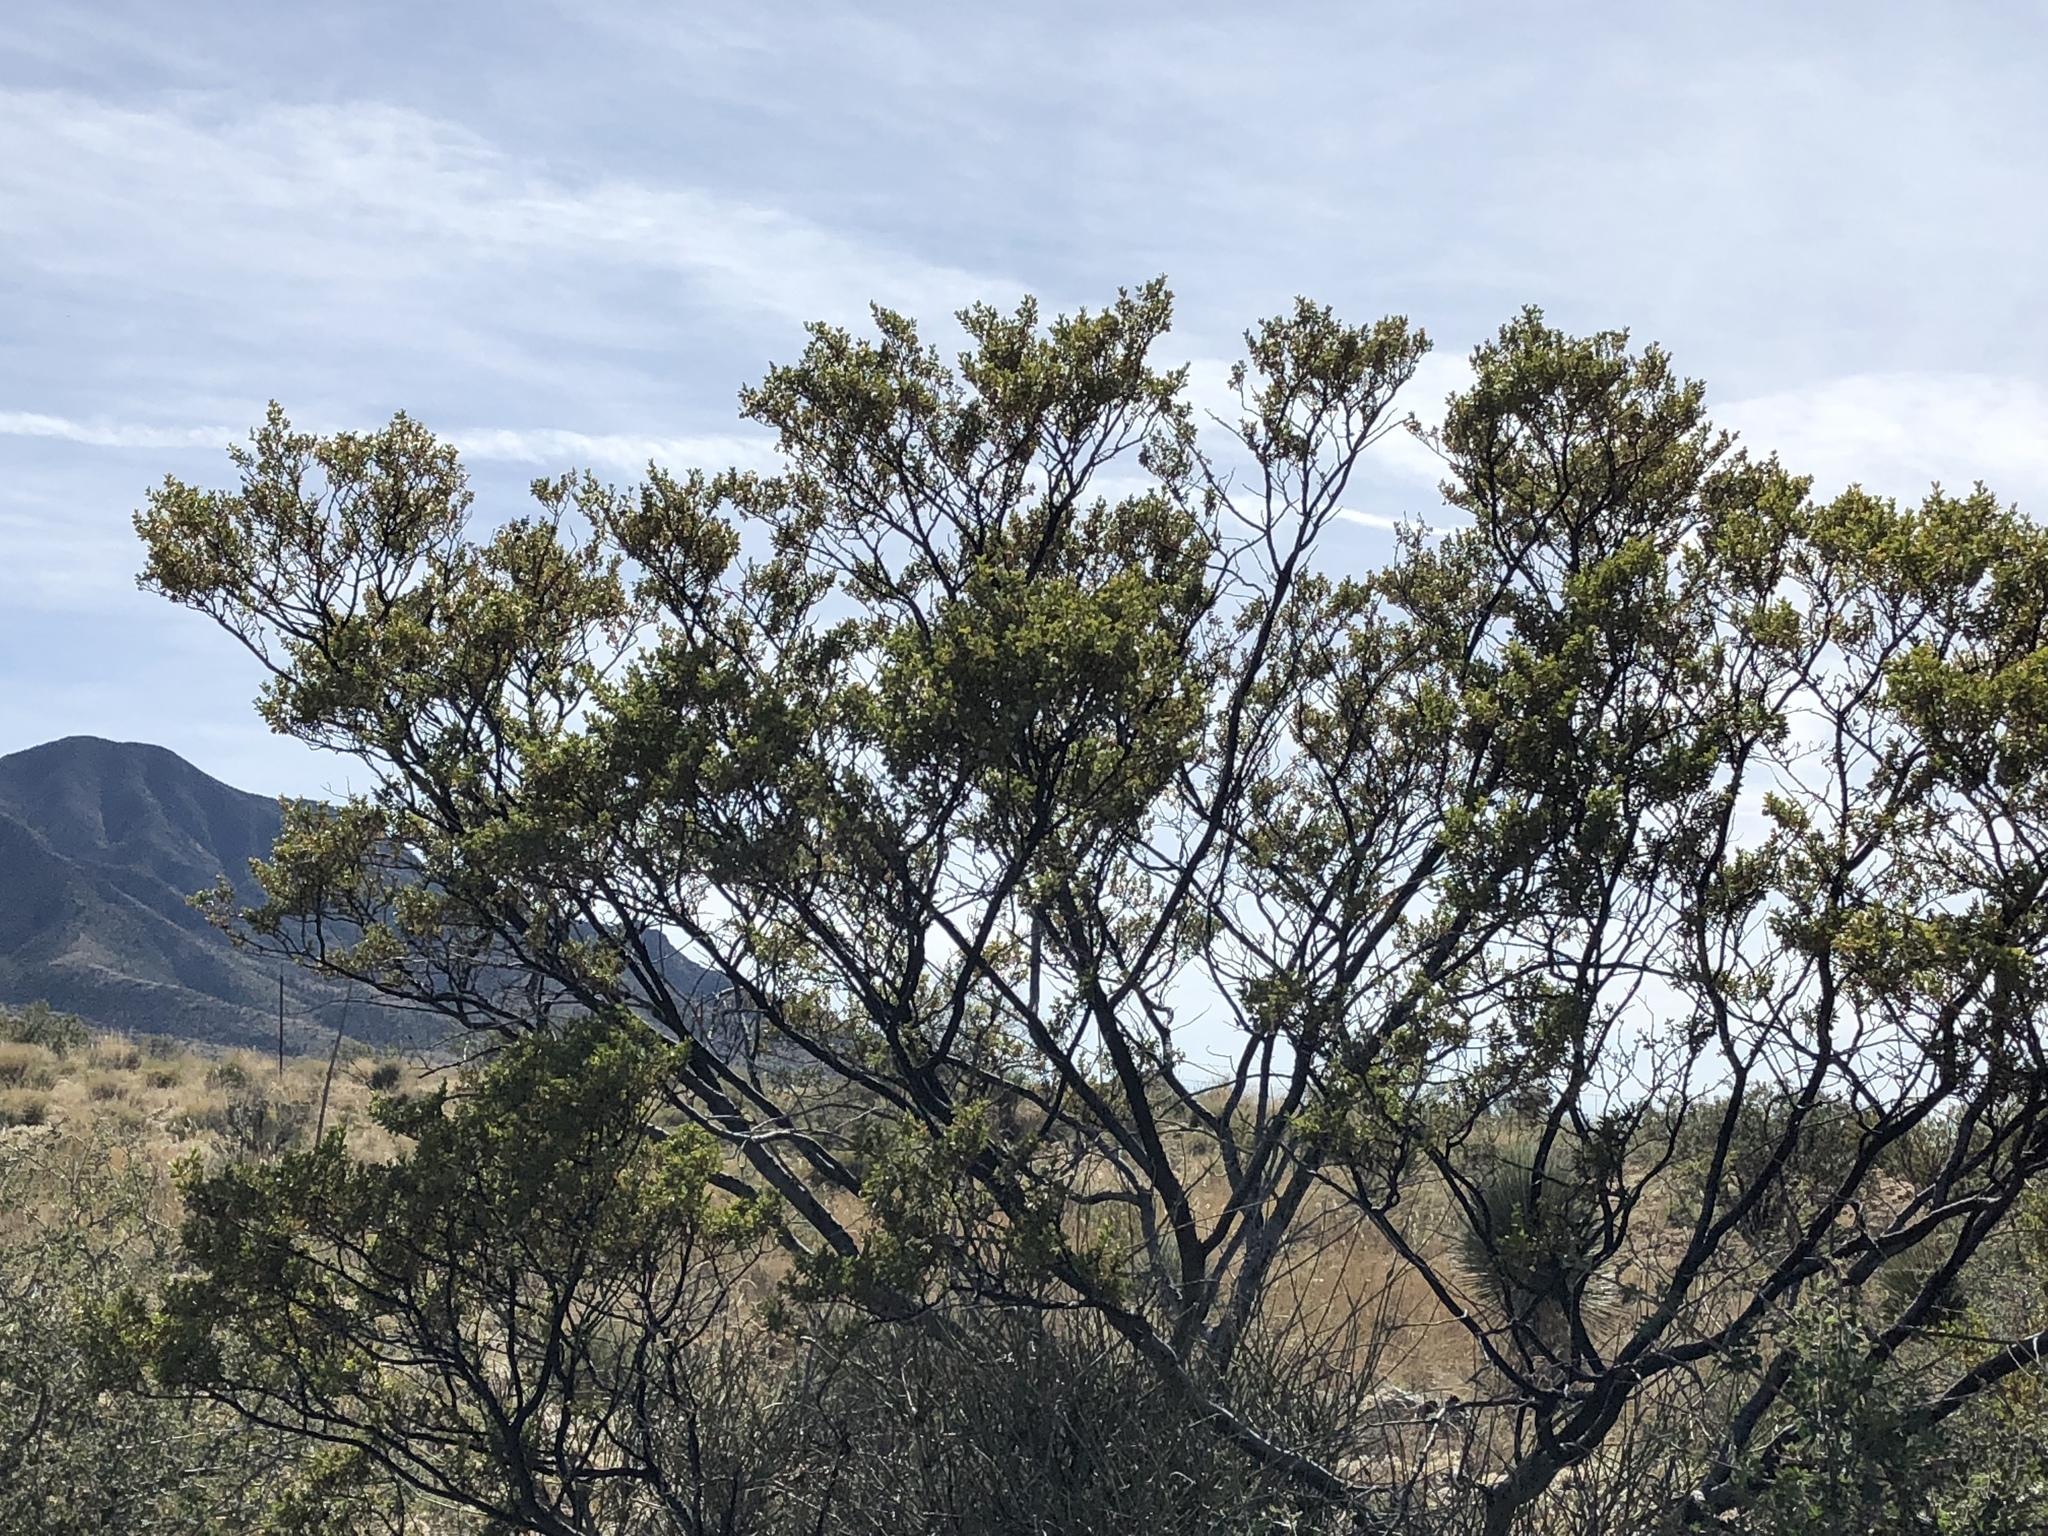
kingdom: Plantae
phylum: Tracheophyta
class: Magnoliopsida
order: Zygophyllales
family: Zygophyllaceae
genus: Larrea
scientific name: Larrea tridentata
